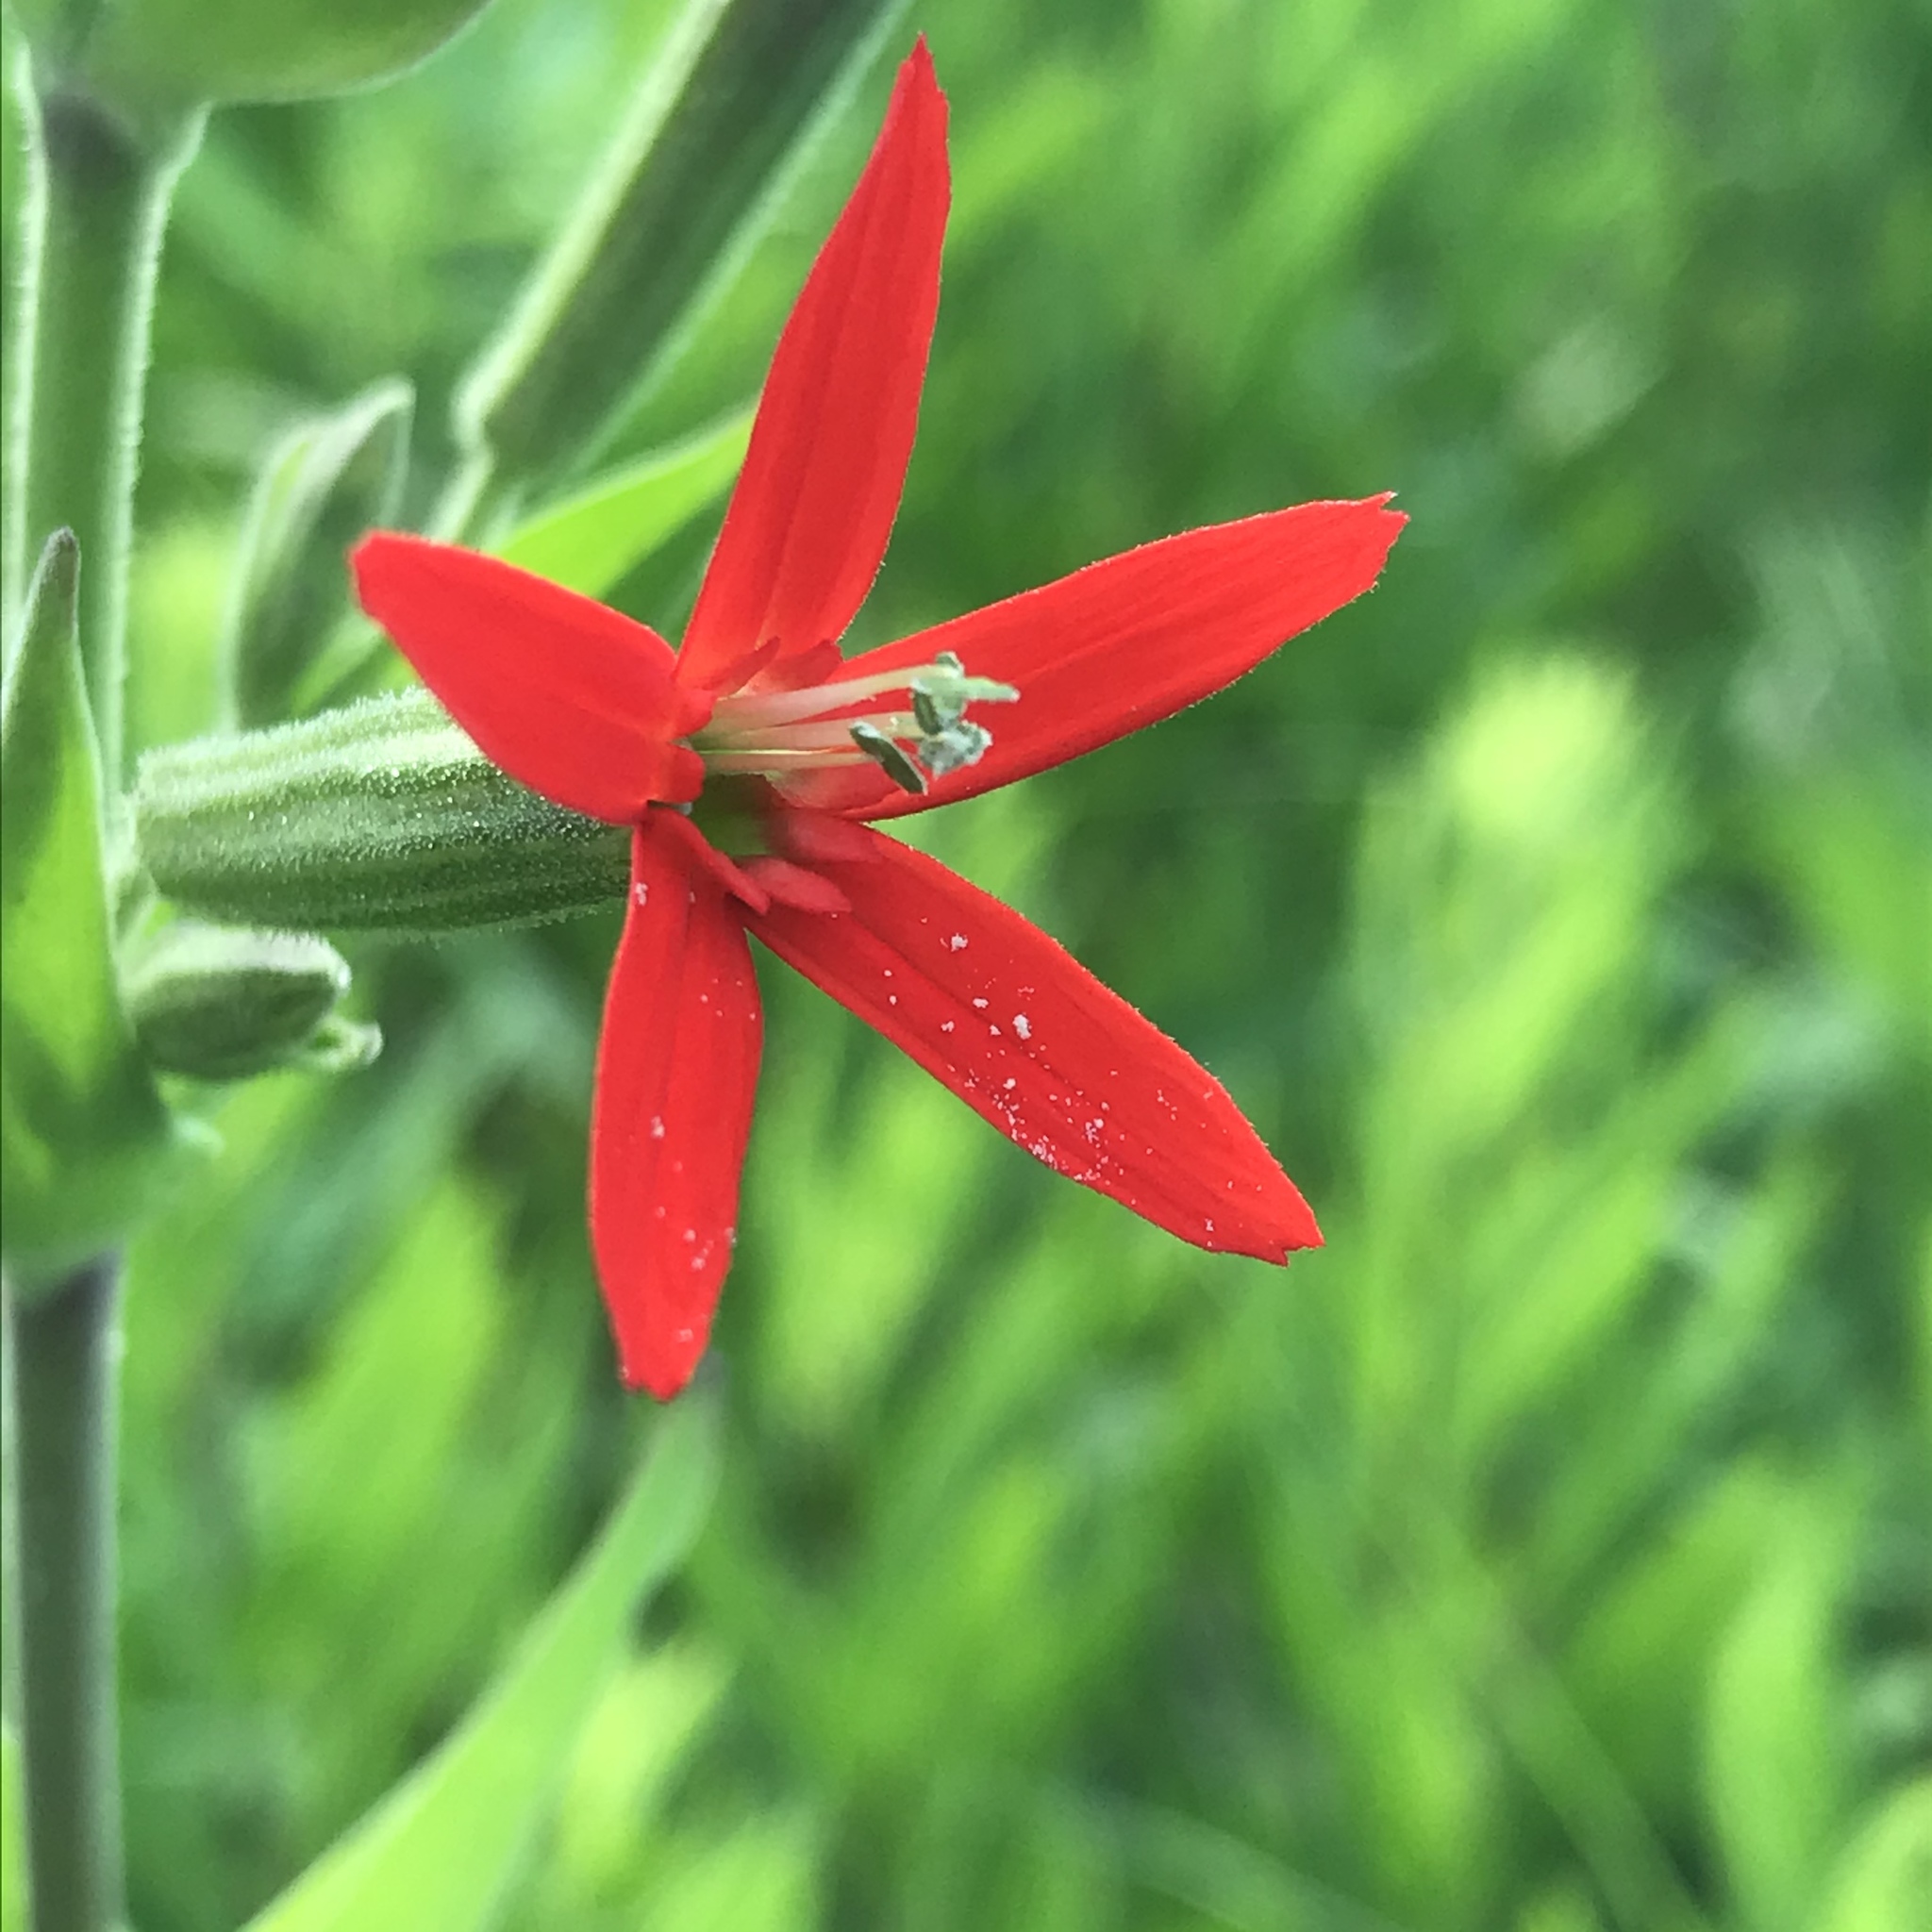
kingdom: Plantae
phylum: Tracheophyta
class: Magnoliopsida
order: Caryophyllales
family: Caryophyllaceae
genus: Silene
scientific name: Silene regia
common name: Royal catchfly
